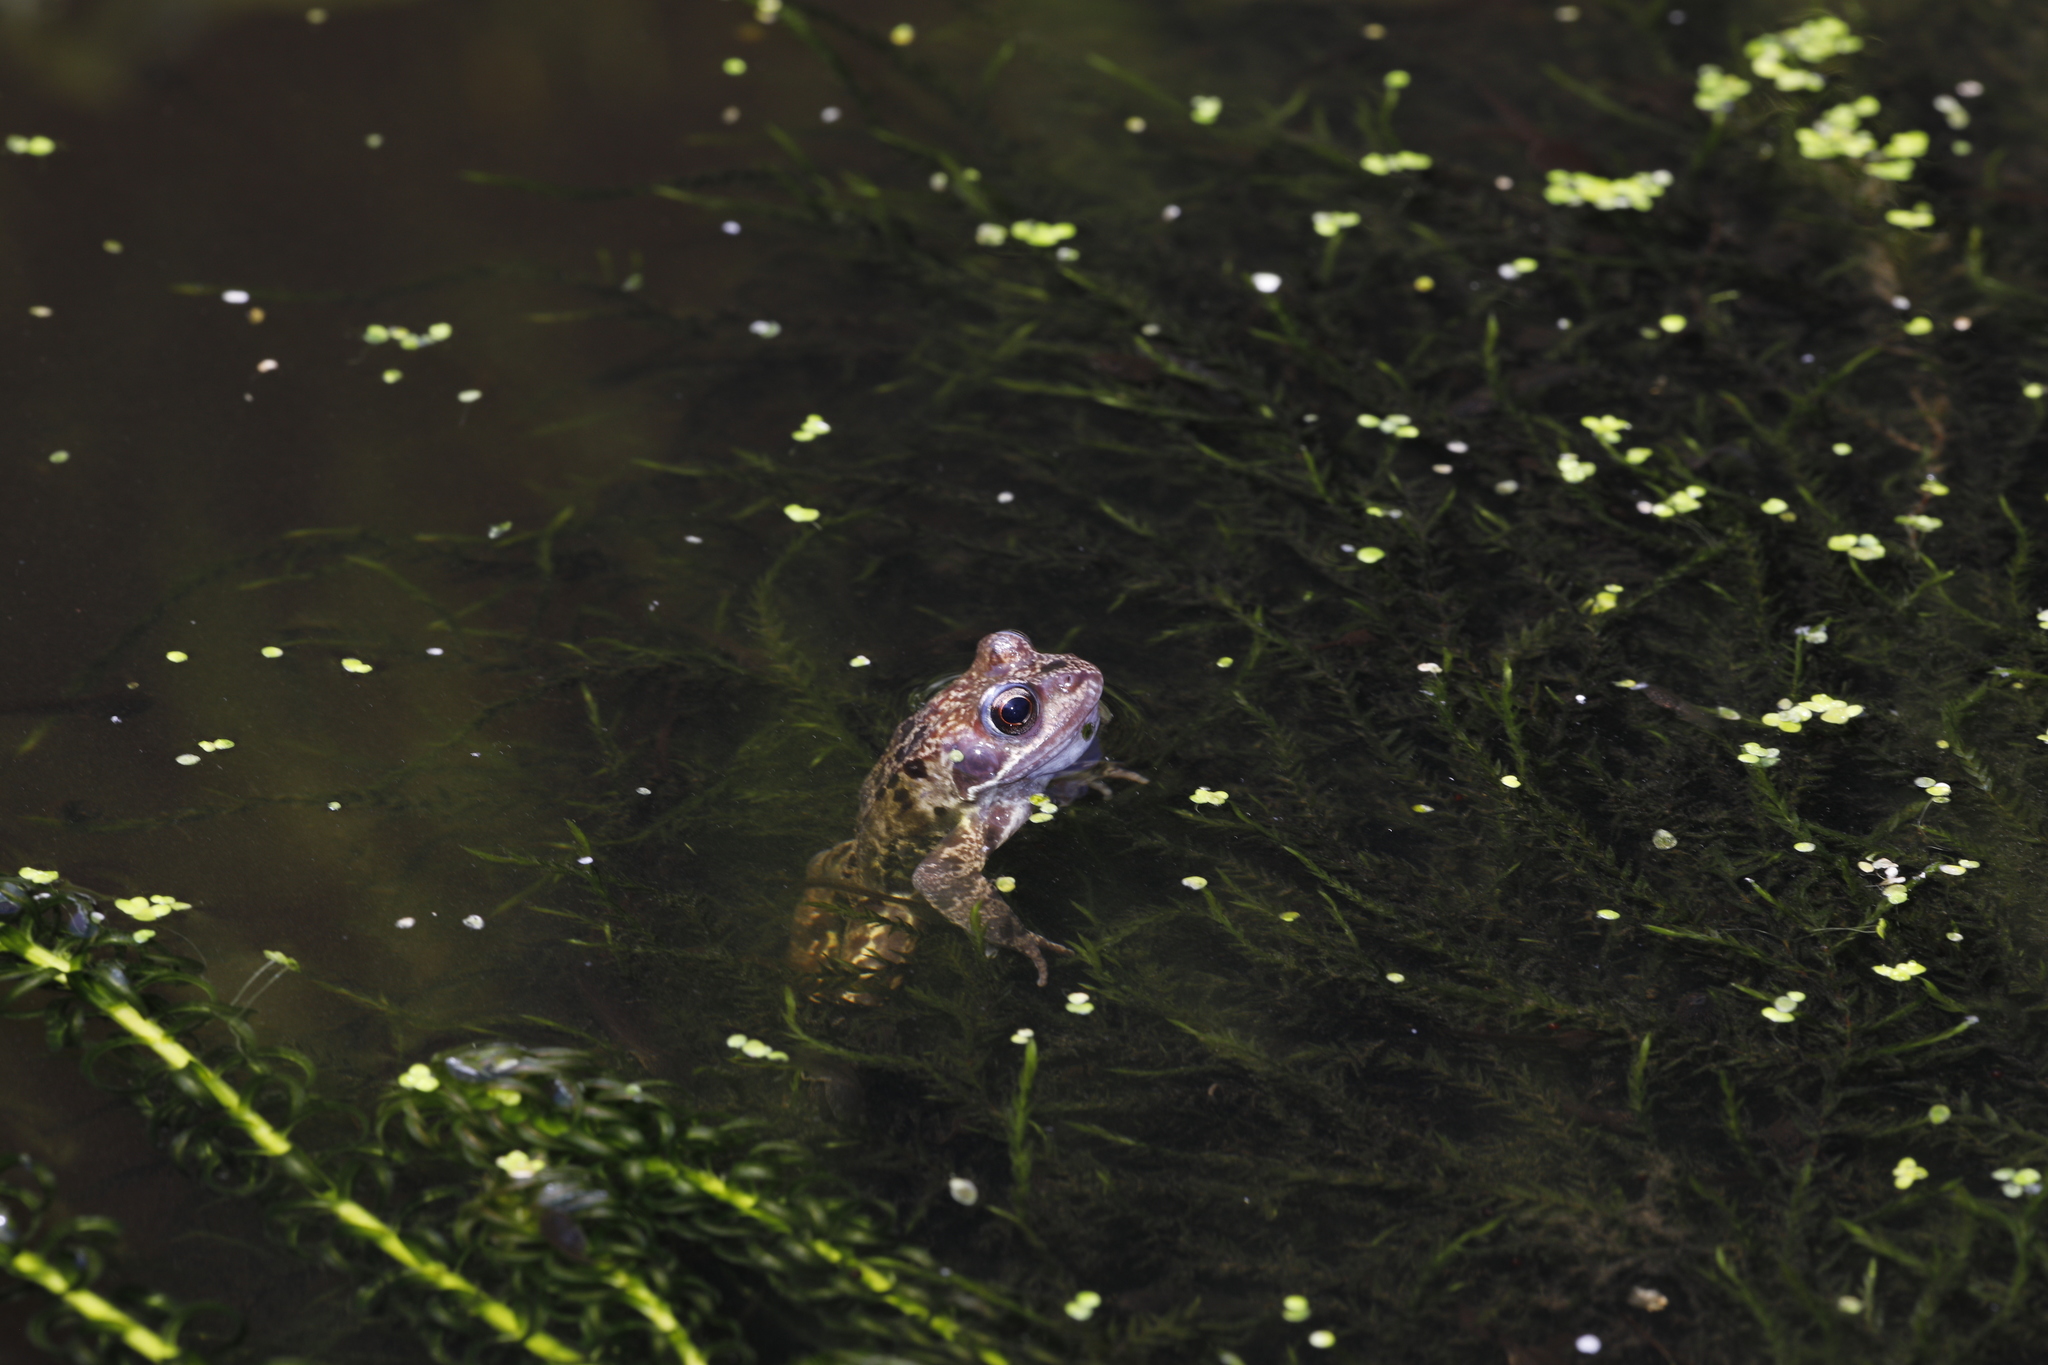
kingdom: Animalia
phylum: Chordata
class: Amphibia
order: Anura
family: Ranidae
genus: Rana
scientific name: Rana temporaria
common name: Common frog
